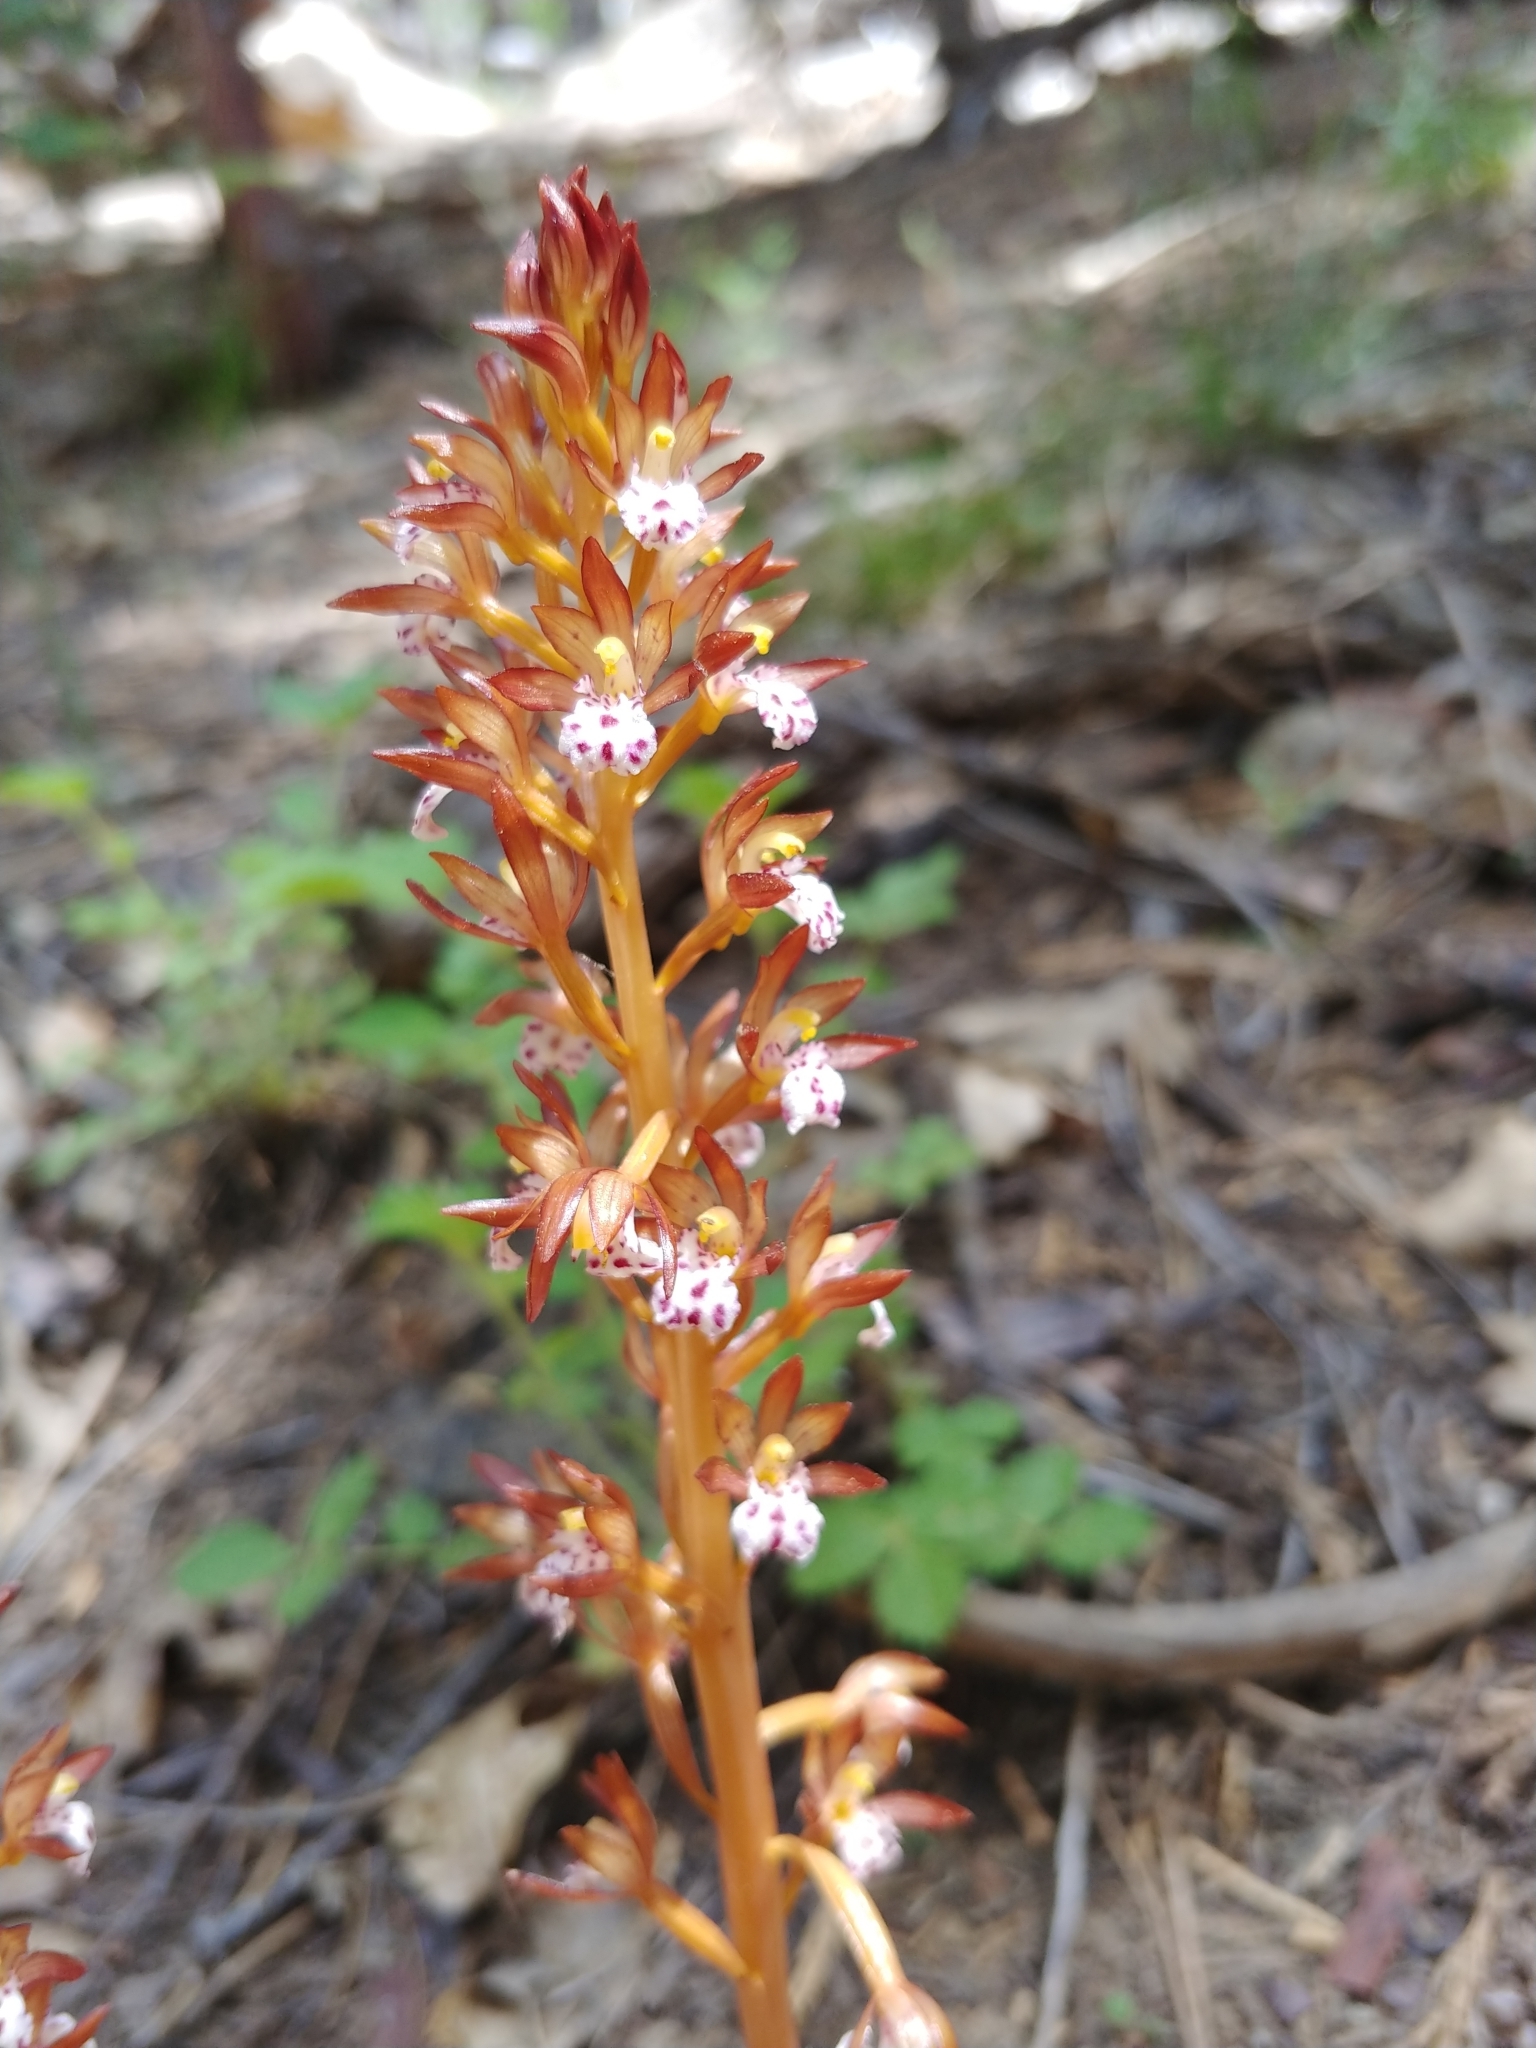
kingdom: Plantae
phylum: Tracheophyta
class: Liliopsida
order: Asparagales
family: Orchidaceae
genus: Corallorhiza
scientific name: Corallorhiza maculata
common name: Spotted coralroot
